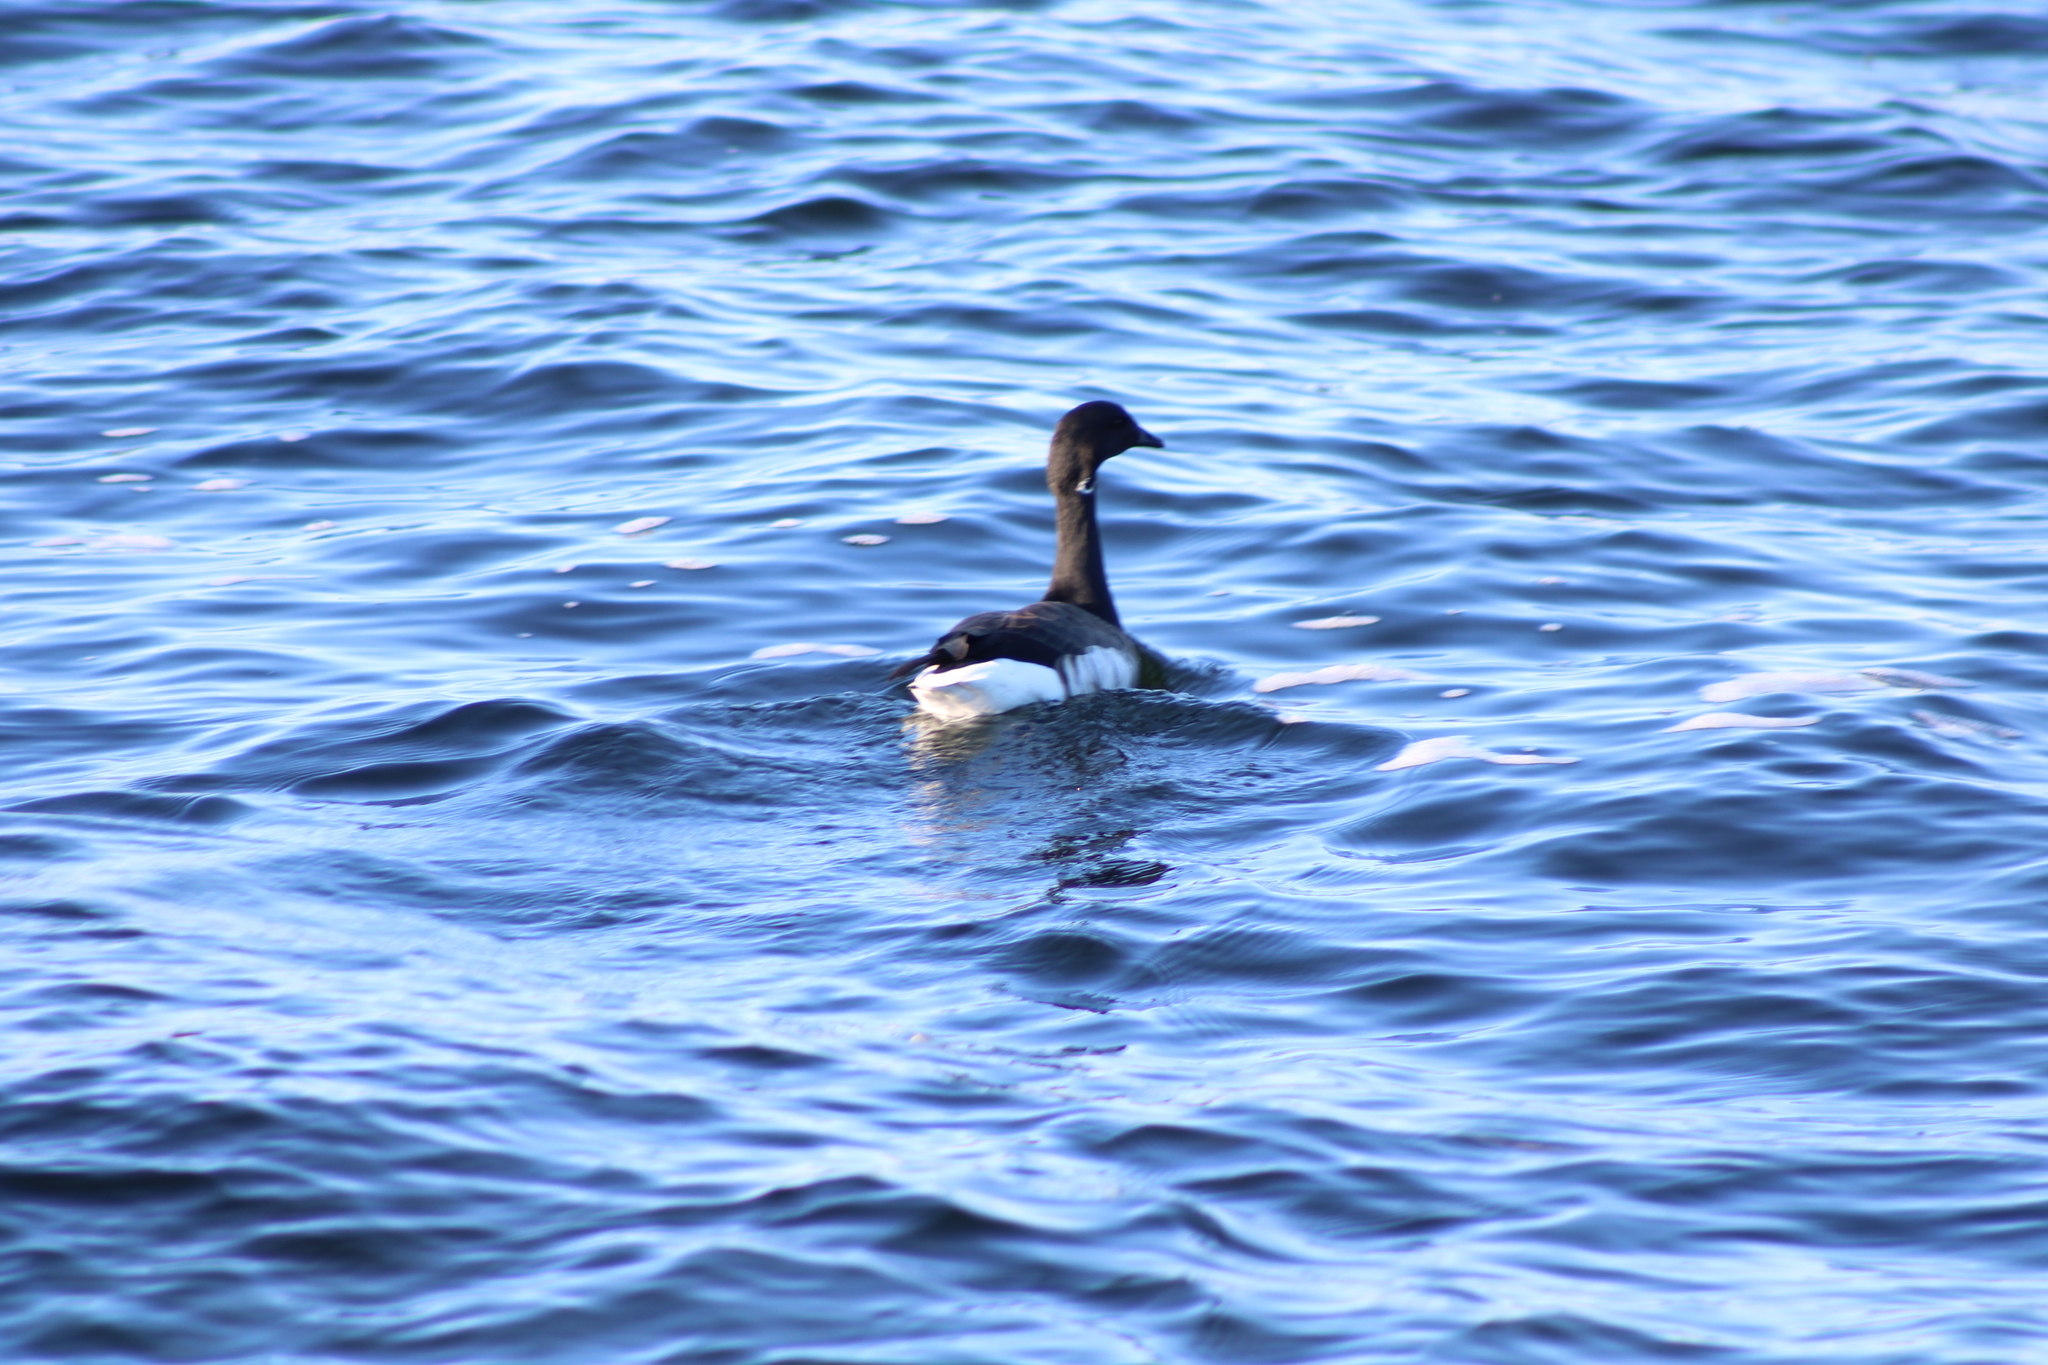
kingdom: Animalia
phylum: Chordata
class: Aves
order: Anseriformes
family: Anatidae
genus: Branta
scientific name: Branta bernicla
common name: Brant goose
